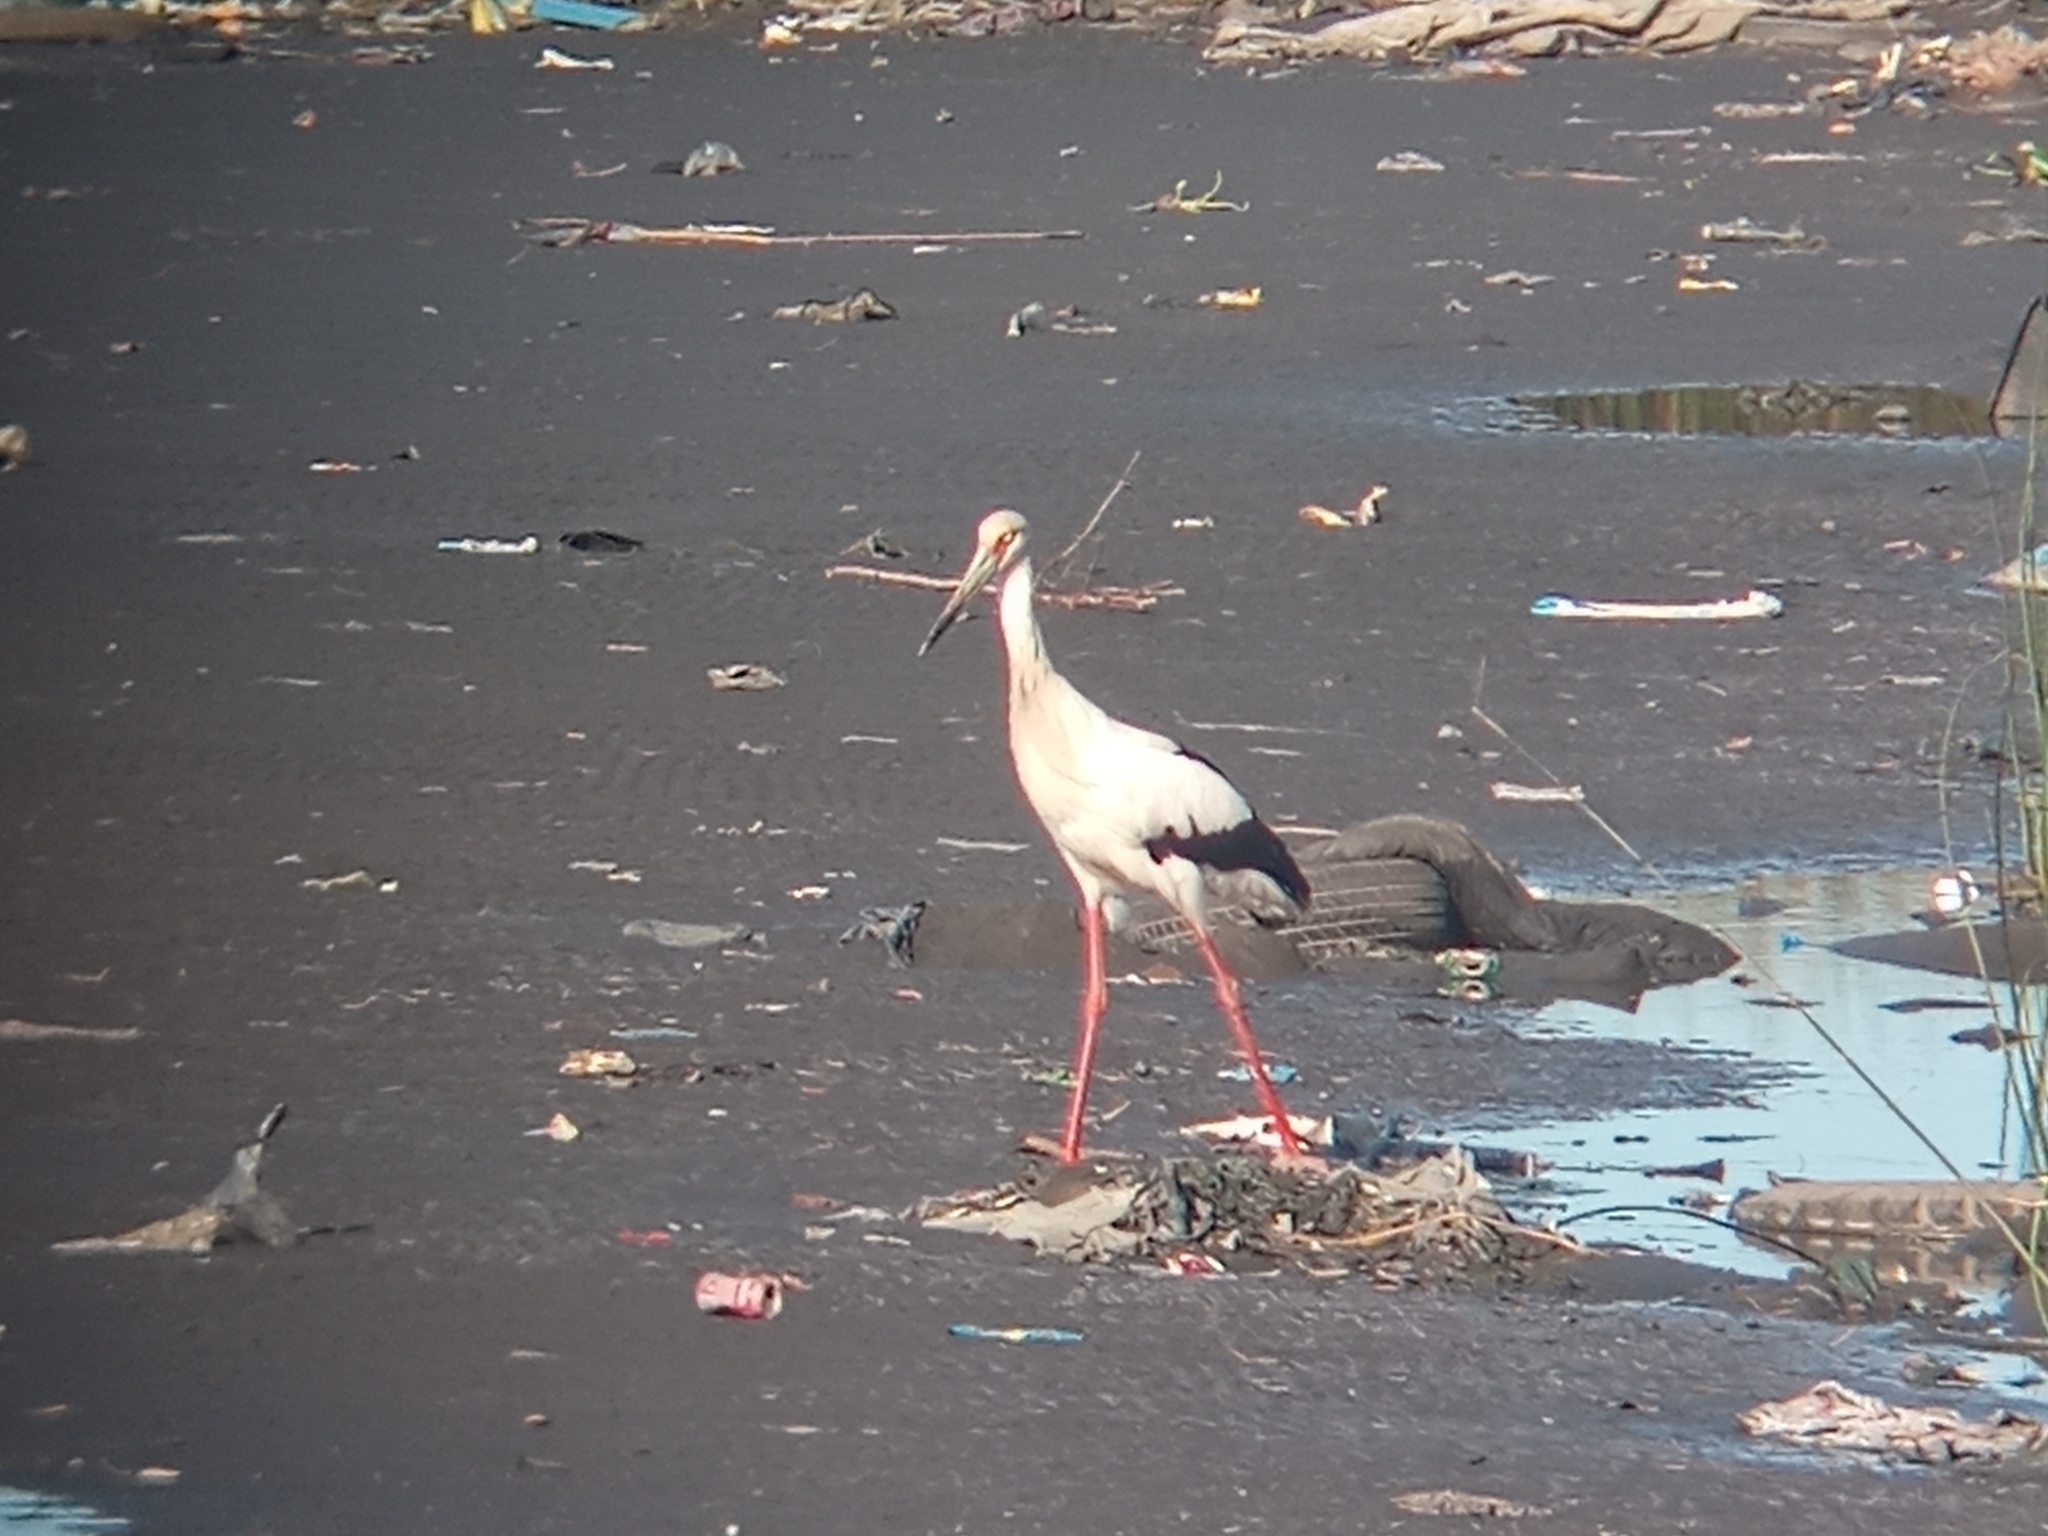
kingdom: Animalia
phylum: Chordata
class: Aves
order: Ciconiiformes
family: Ciconiidae
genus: Ciconia
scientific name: Ciconia maguari
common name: Maguari stork
